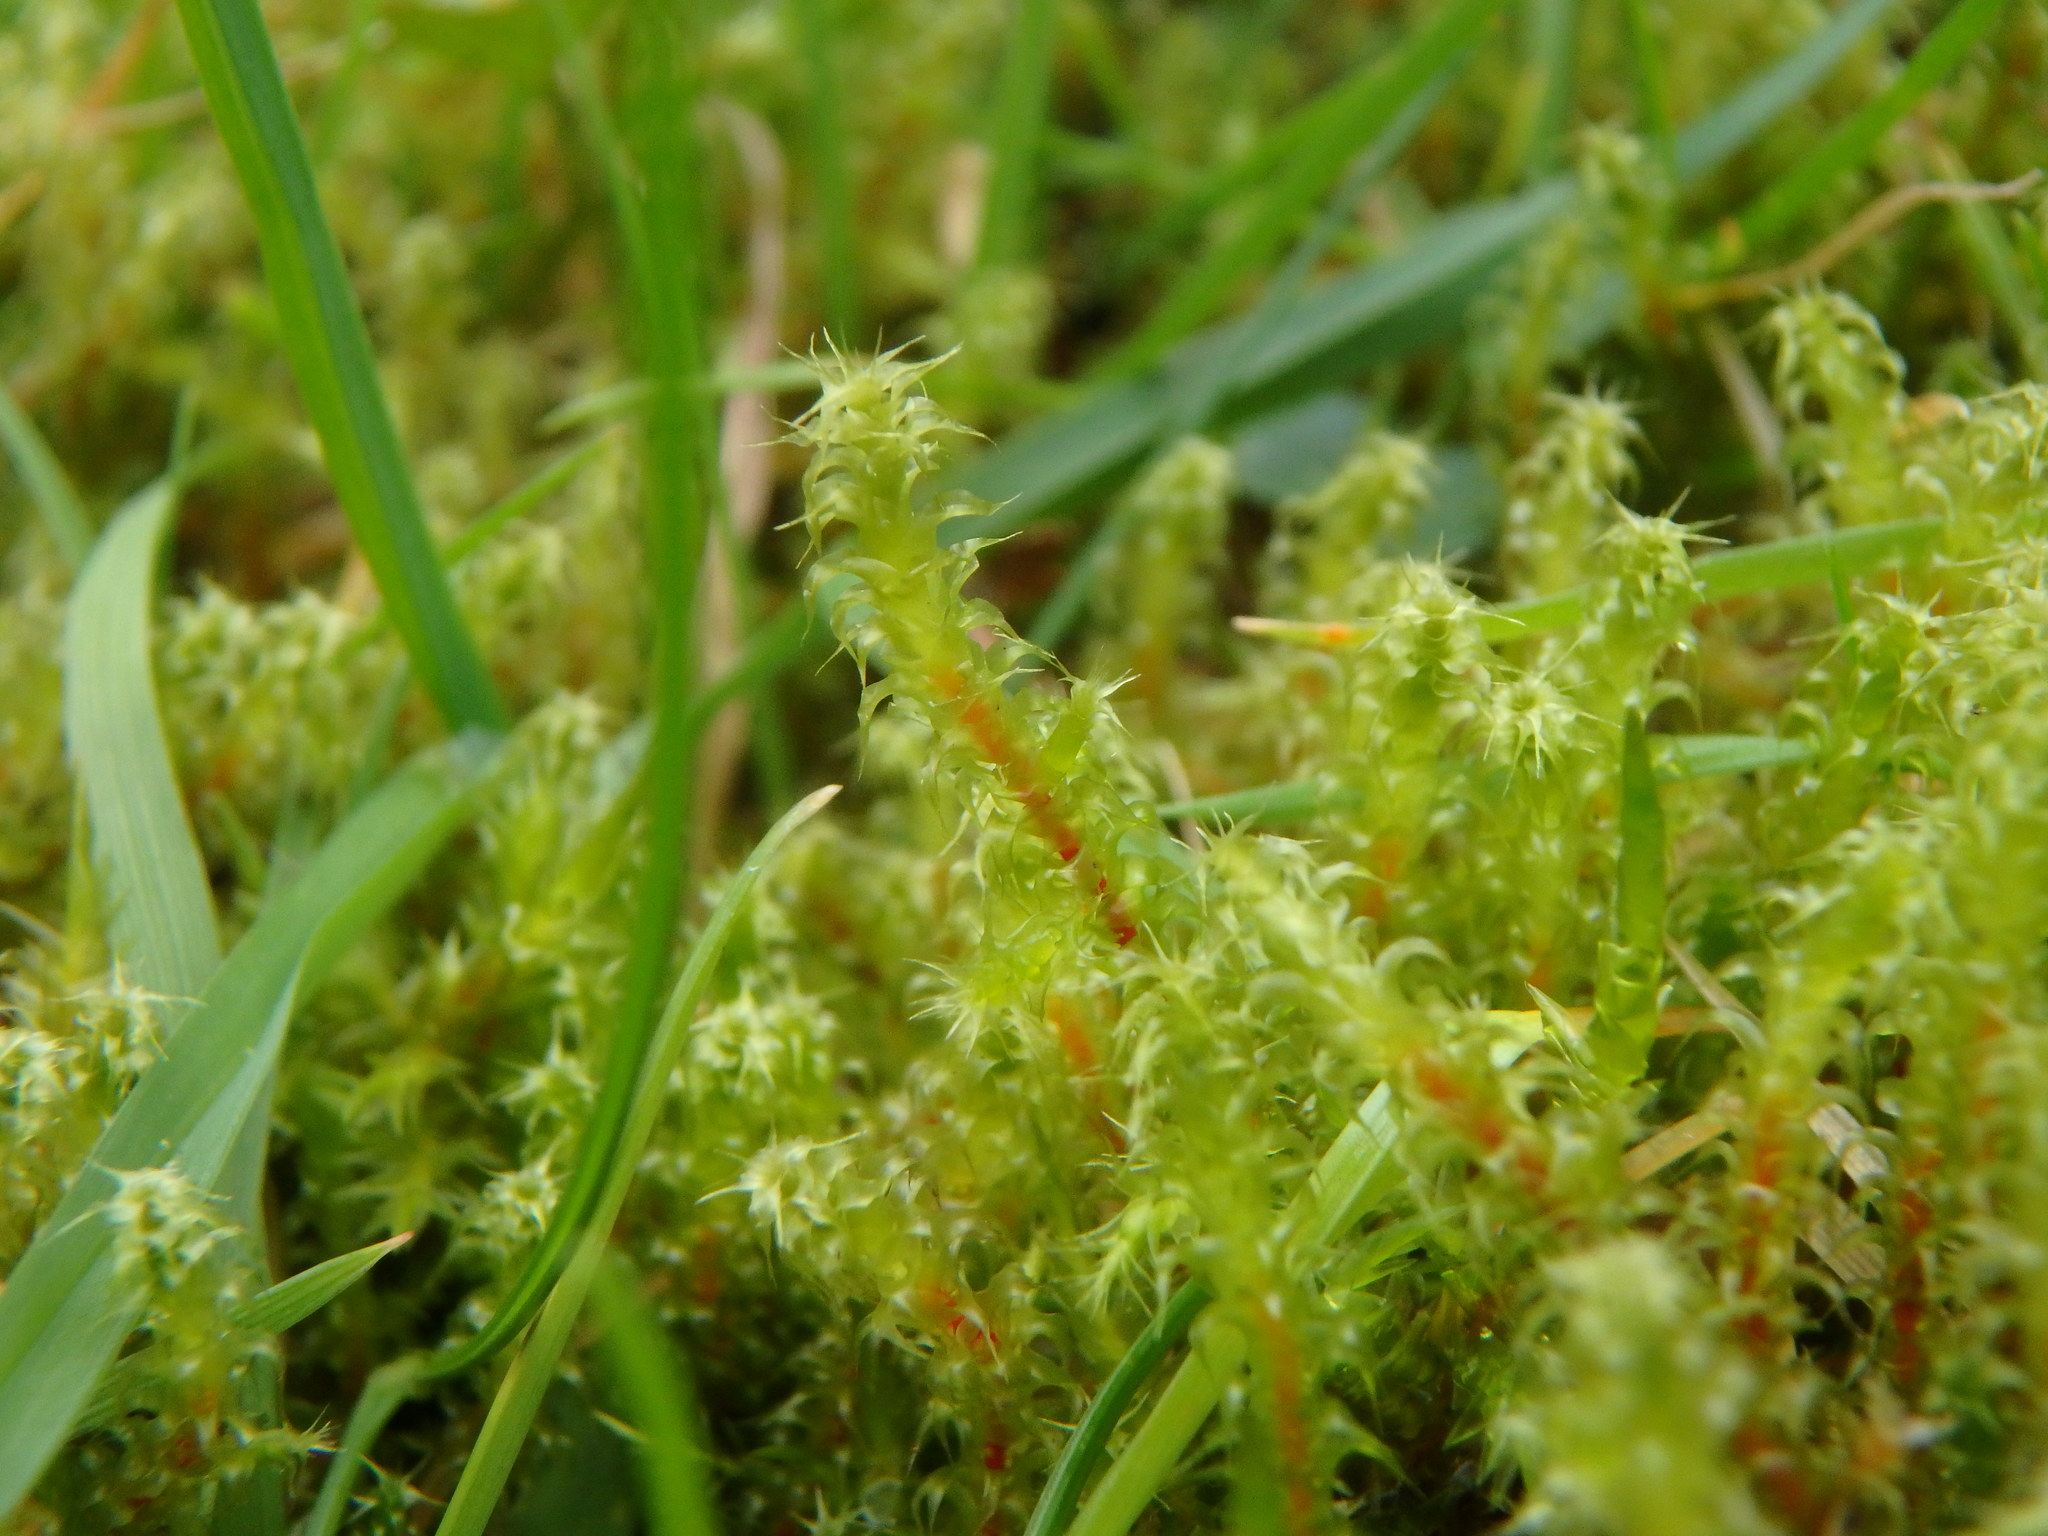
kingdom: Plantae
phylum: Bryophyta
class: Bryopsida
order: Hypnales
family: Hylocomiaceae
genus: Rhytidiadelphus
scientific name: Rhytidiadelphus squarrosus
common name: Springy turf-moss
